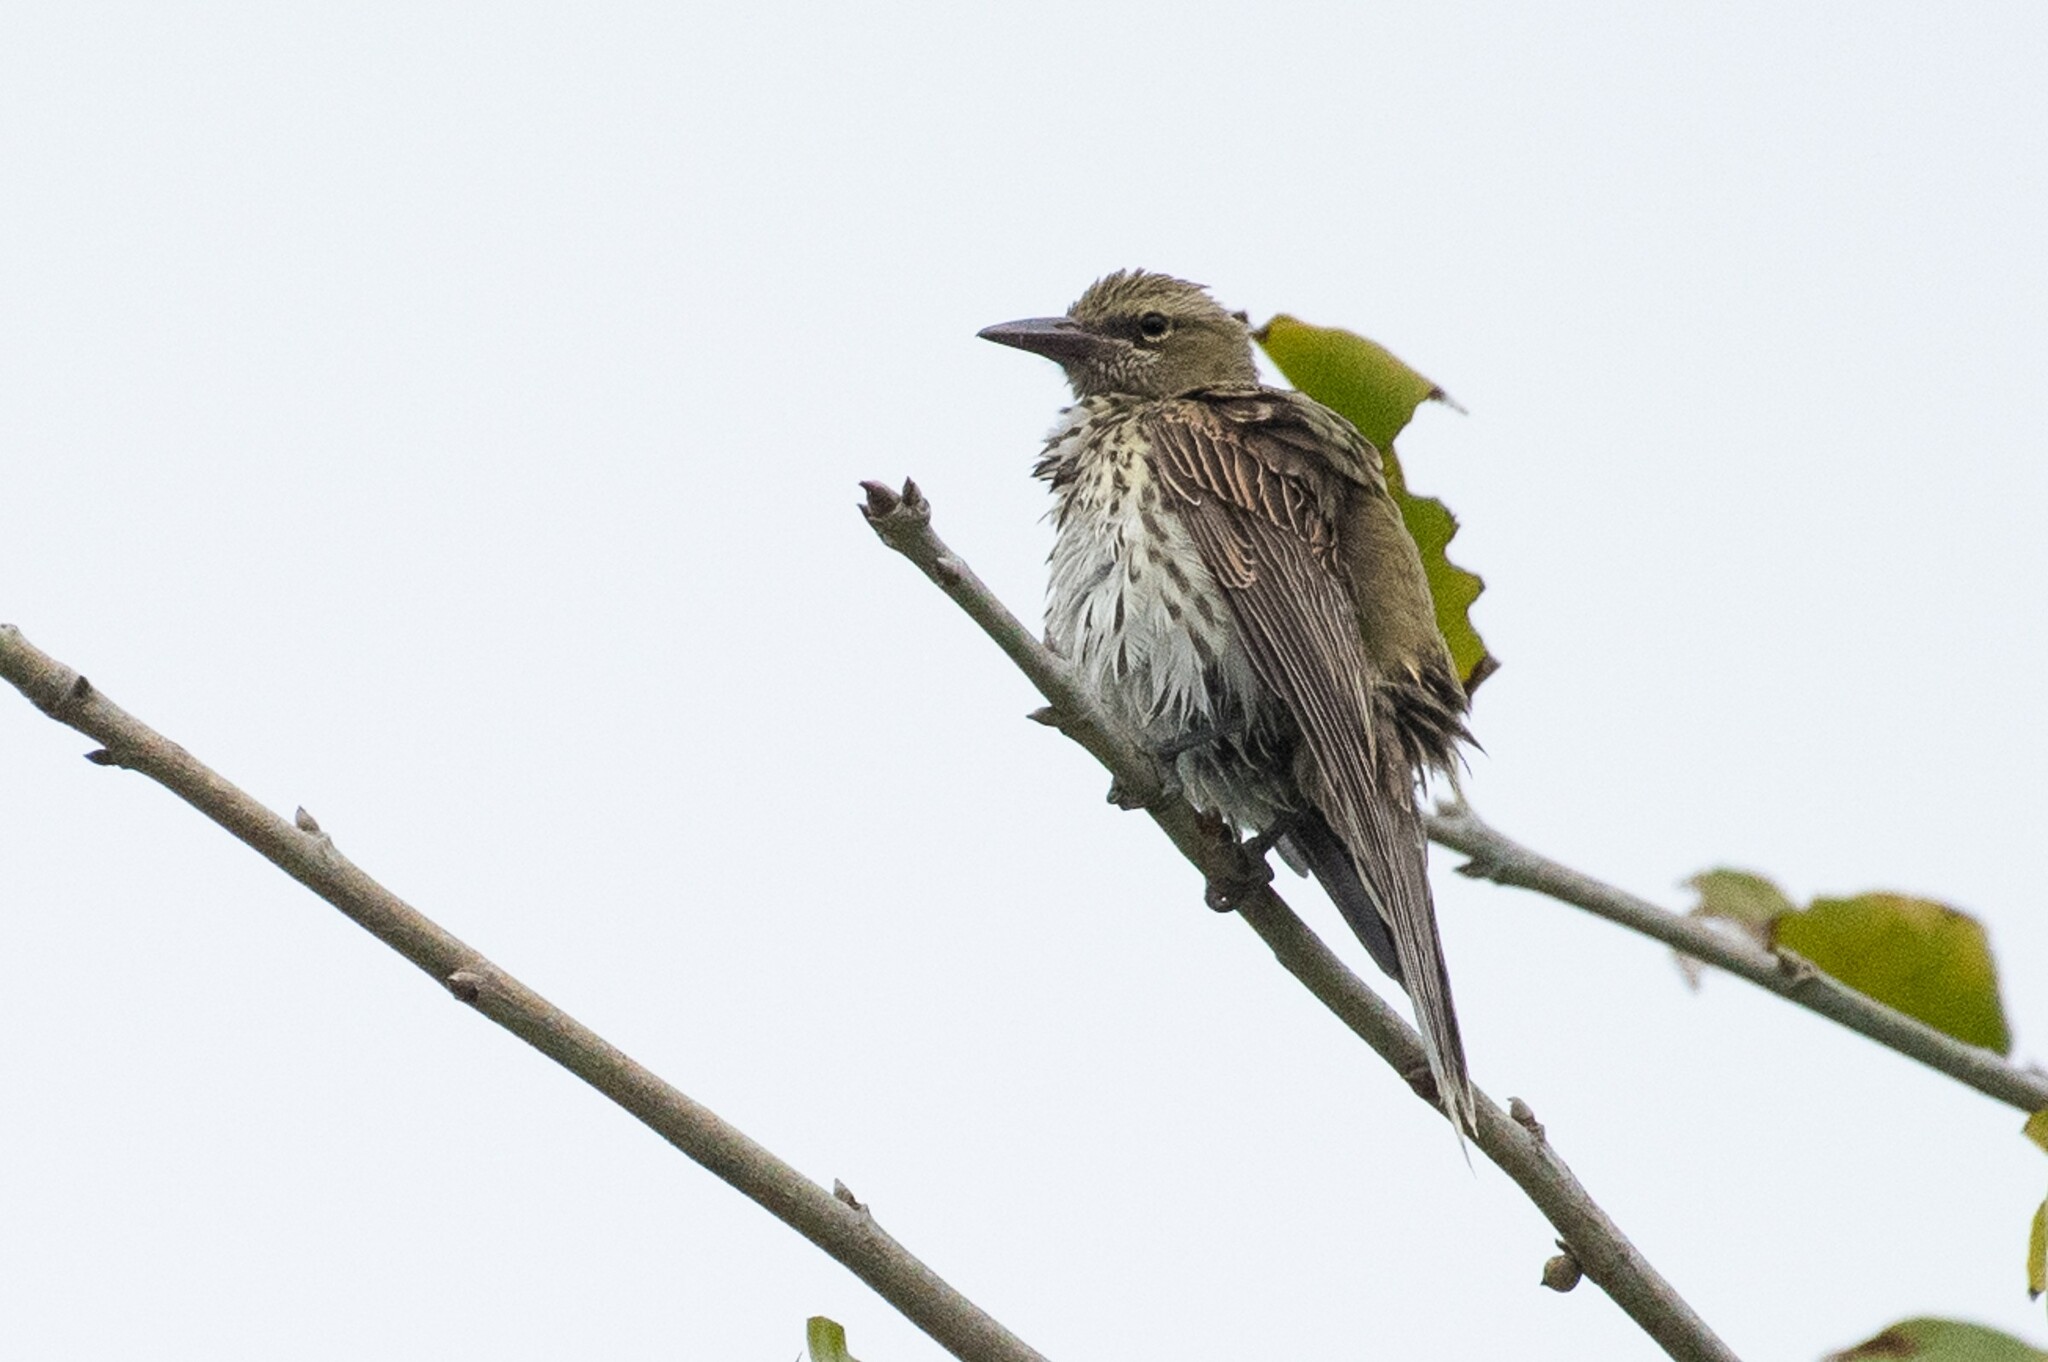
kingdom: Animalia
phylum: Chordata
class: Aves
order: Passeriformes
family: Oriolidae
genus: Oriolus
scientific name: Oriolus sagittatus
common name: Olive-backed oriole
